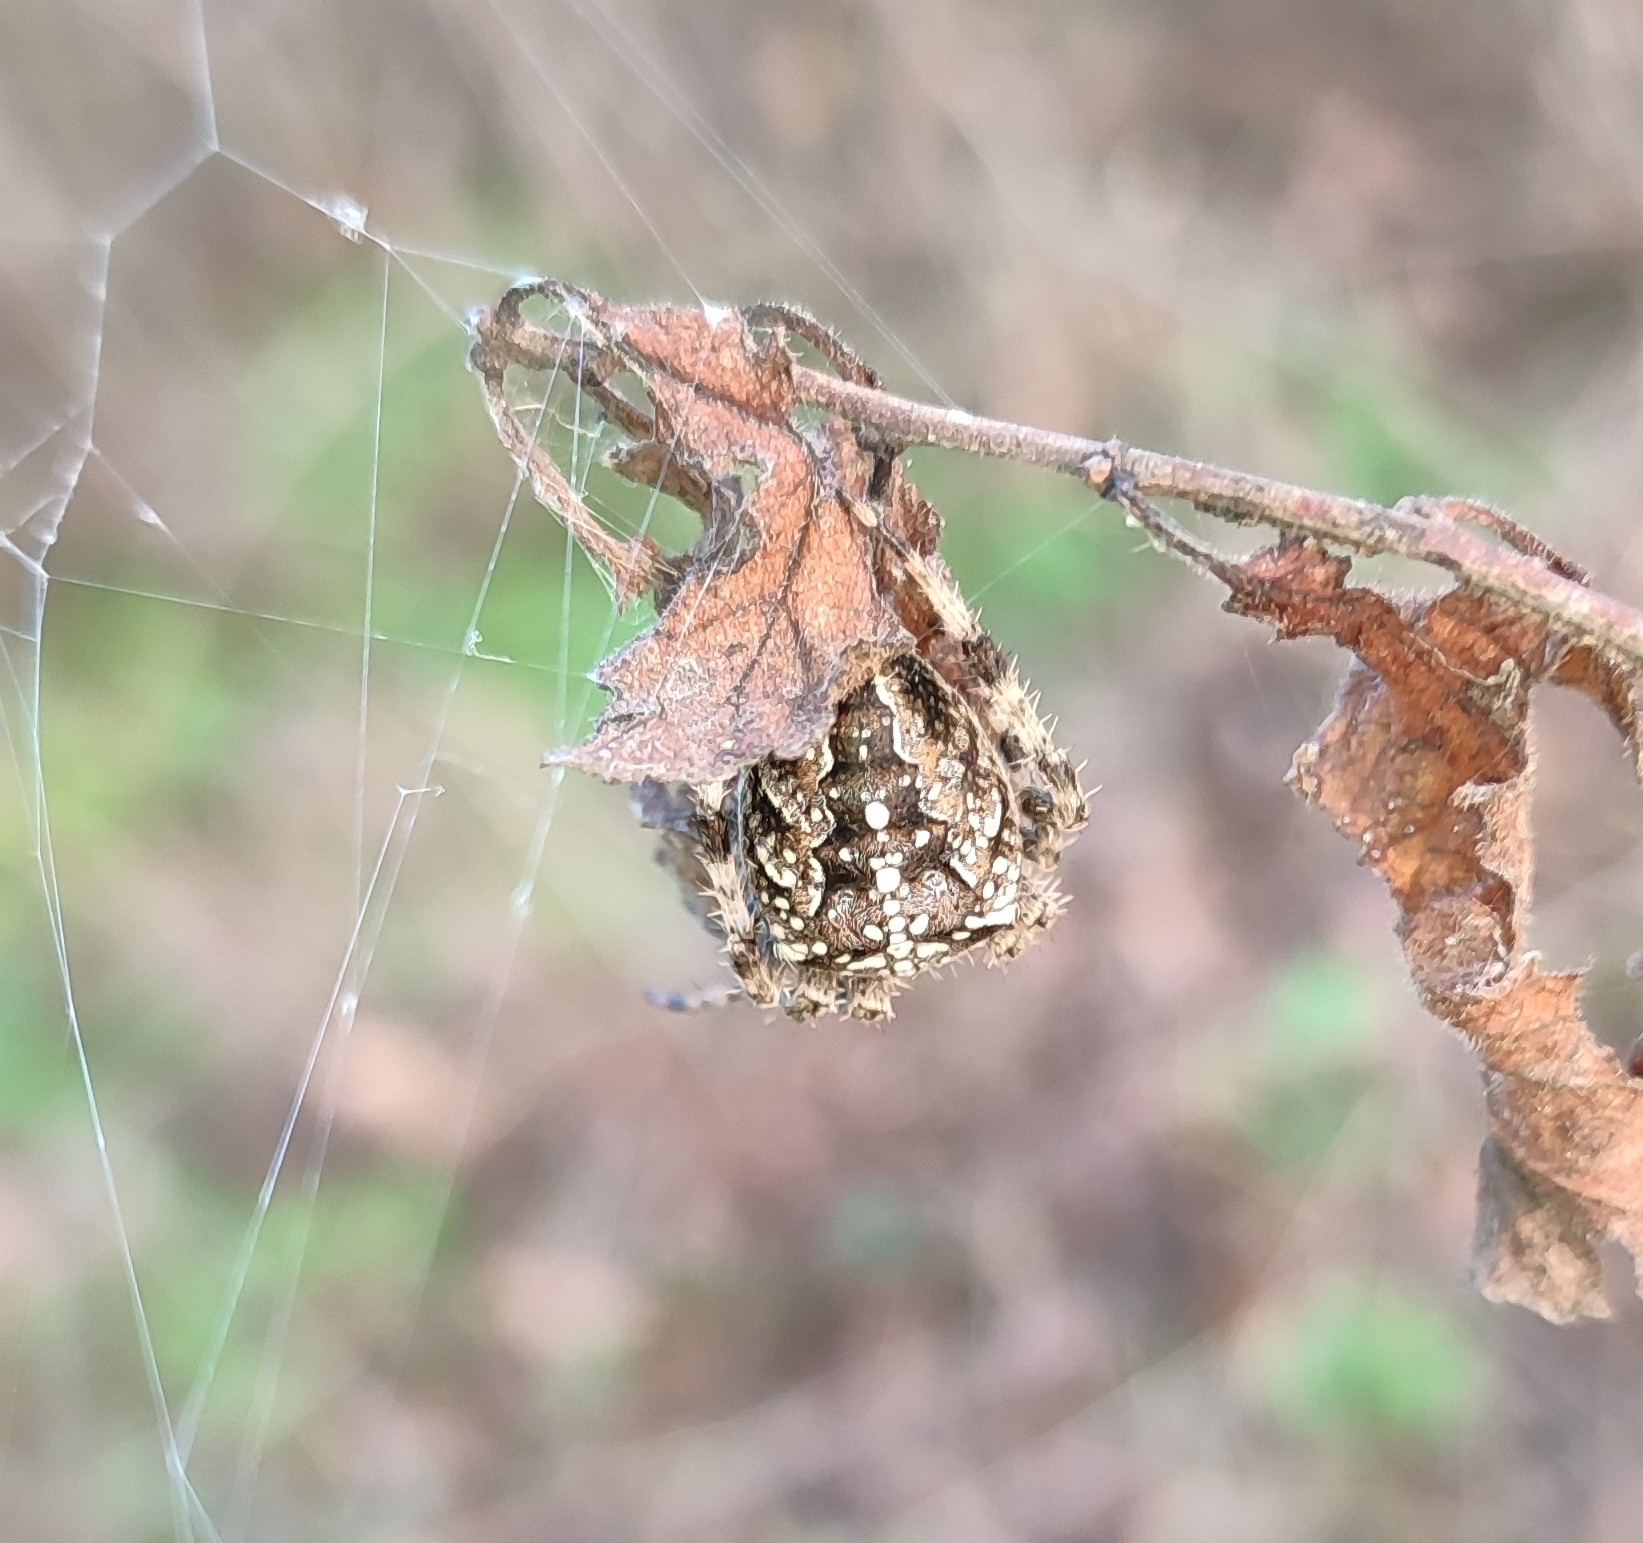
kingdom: Animalia
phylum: Arthropoda
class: Arachnida
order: Araneae
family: Araneidae
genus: Araneus
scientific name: Araneus diadematus
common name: Cross orbweaver
